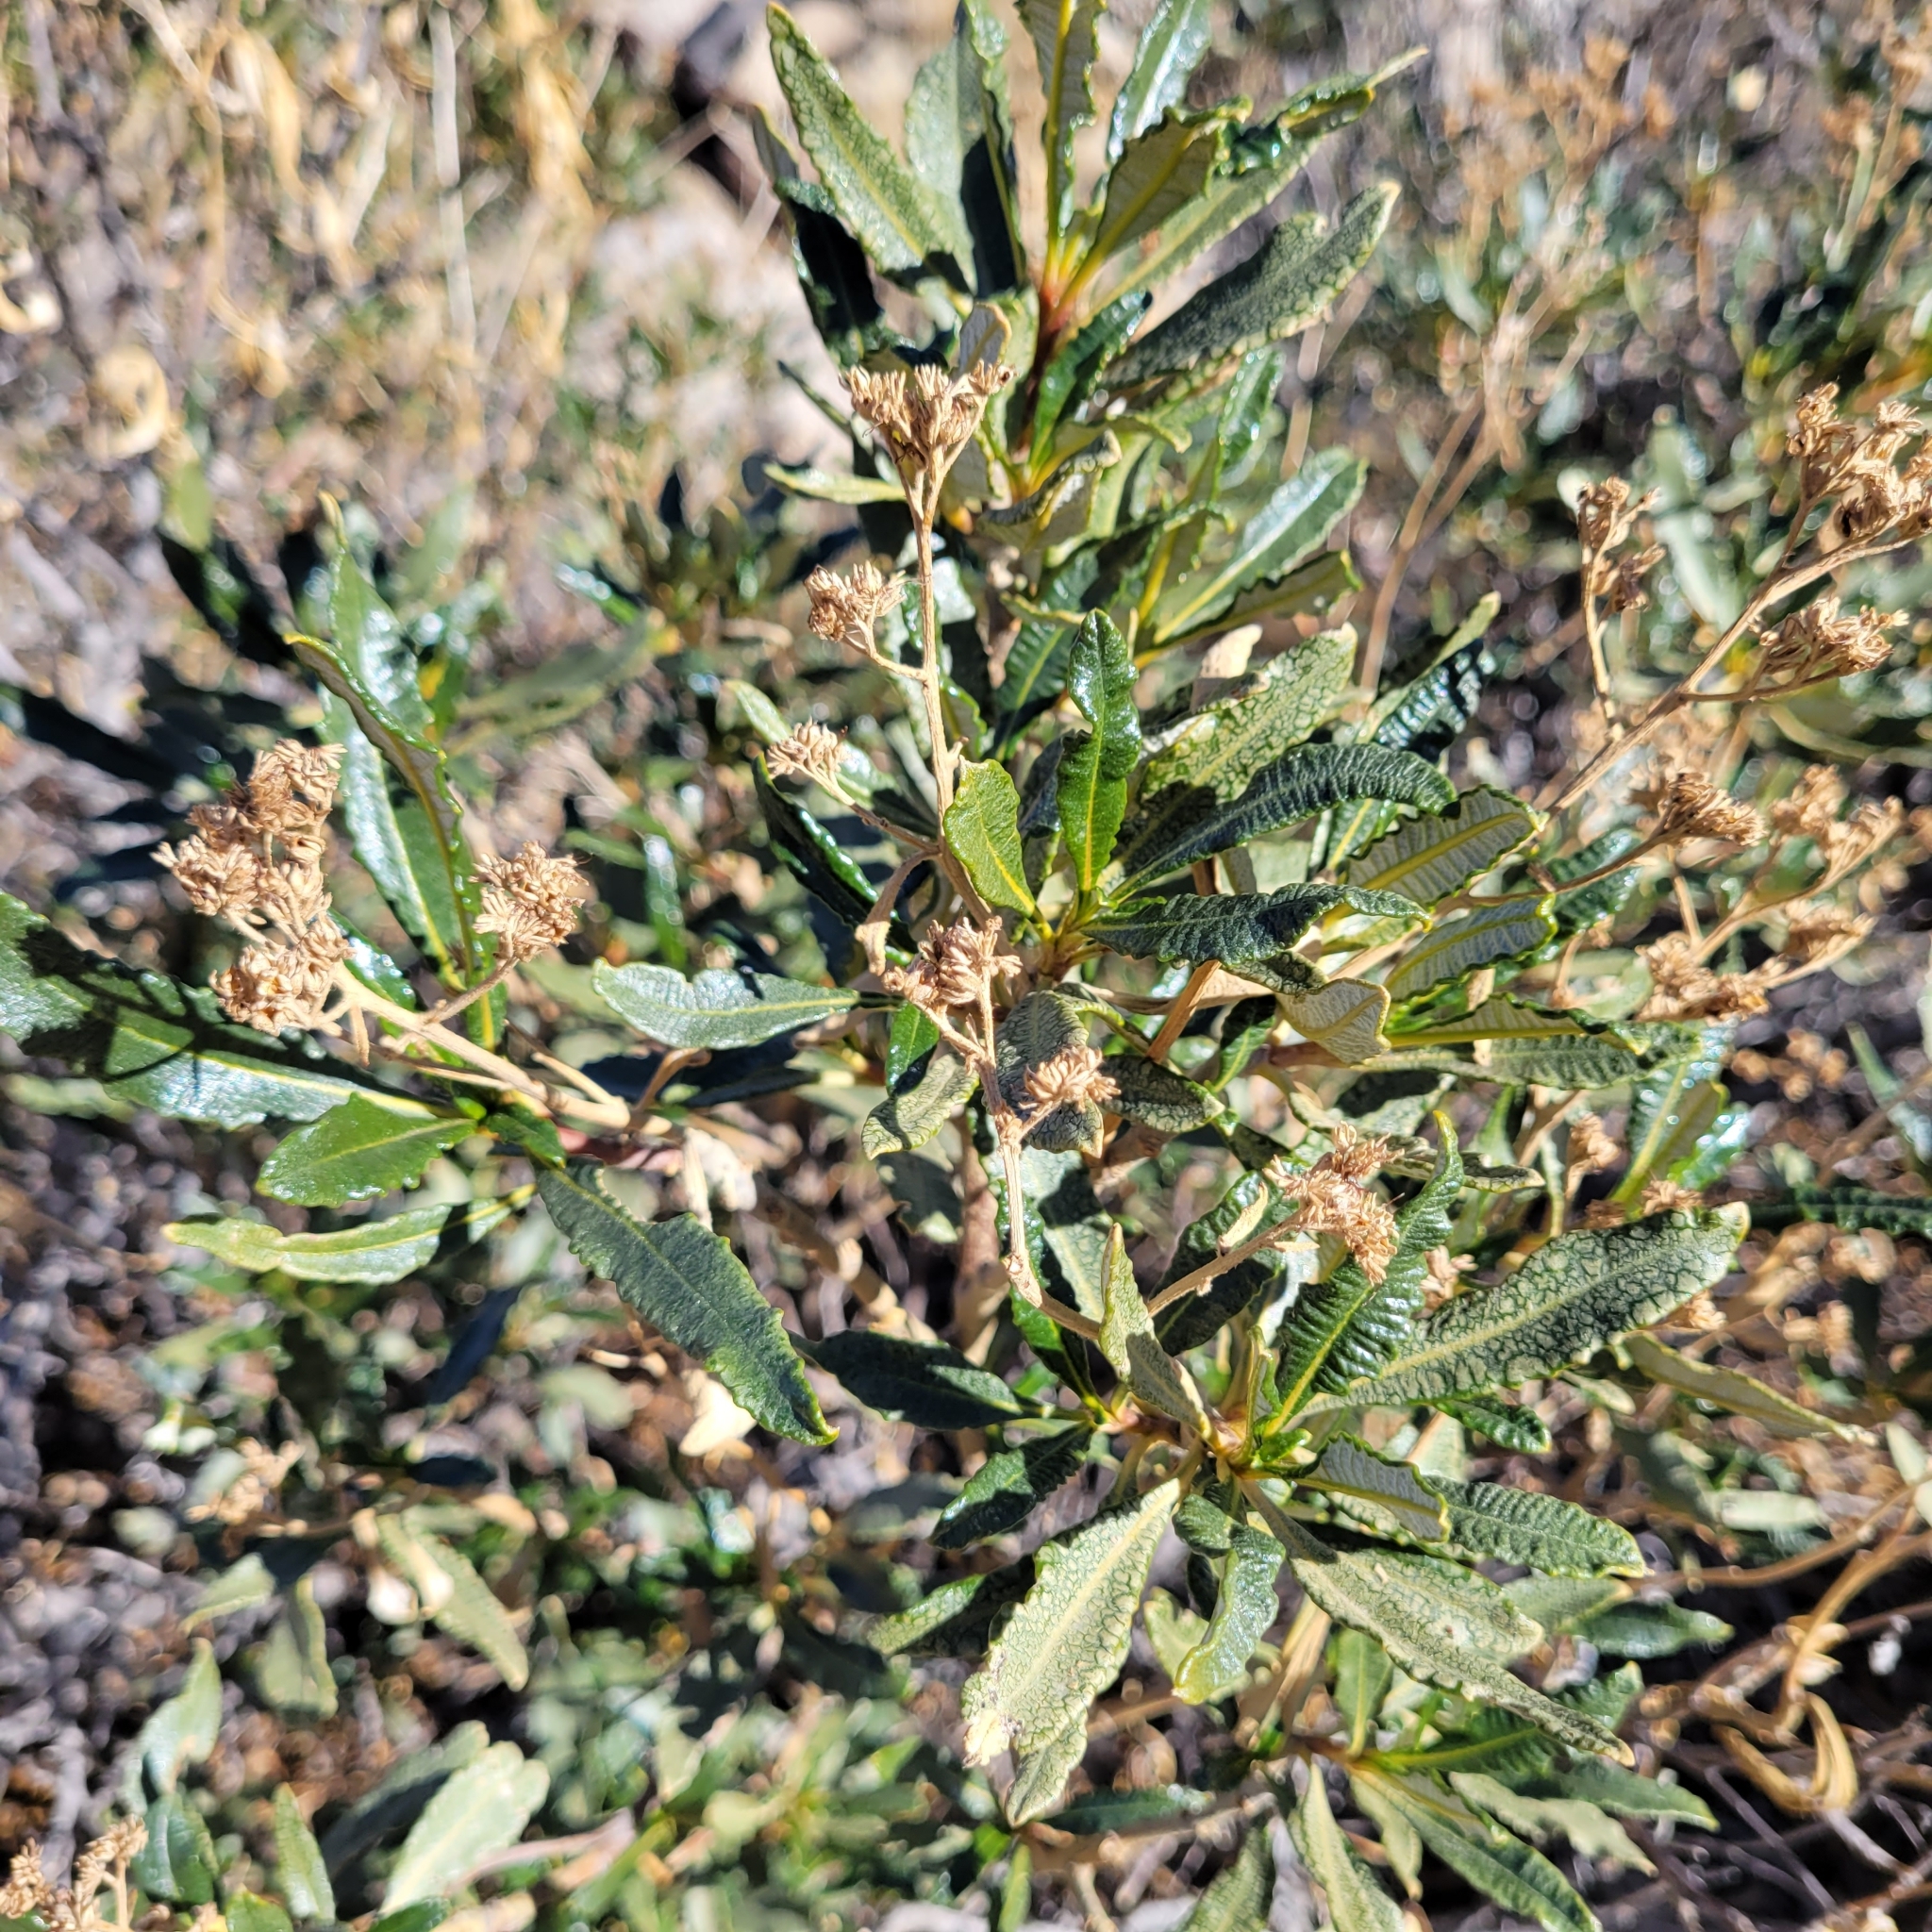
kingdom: Plantae
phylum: Tracheophyta
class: Magnoliopsida
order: Boraginales
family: Namaceae
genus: Eriodictyon
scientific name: Eriodictyon trichocalyx
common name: Hairy yerba-santa
